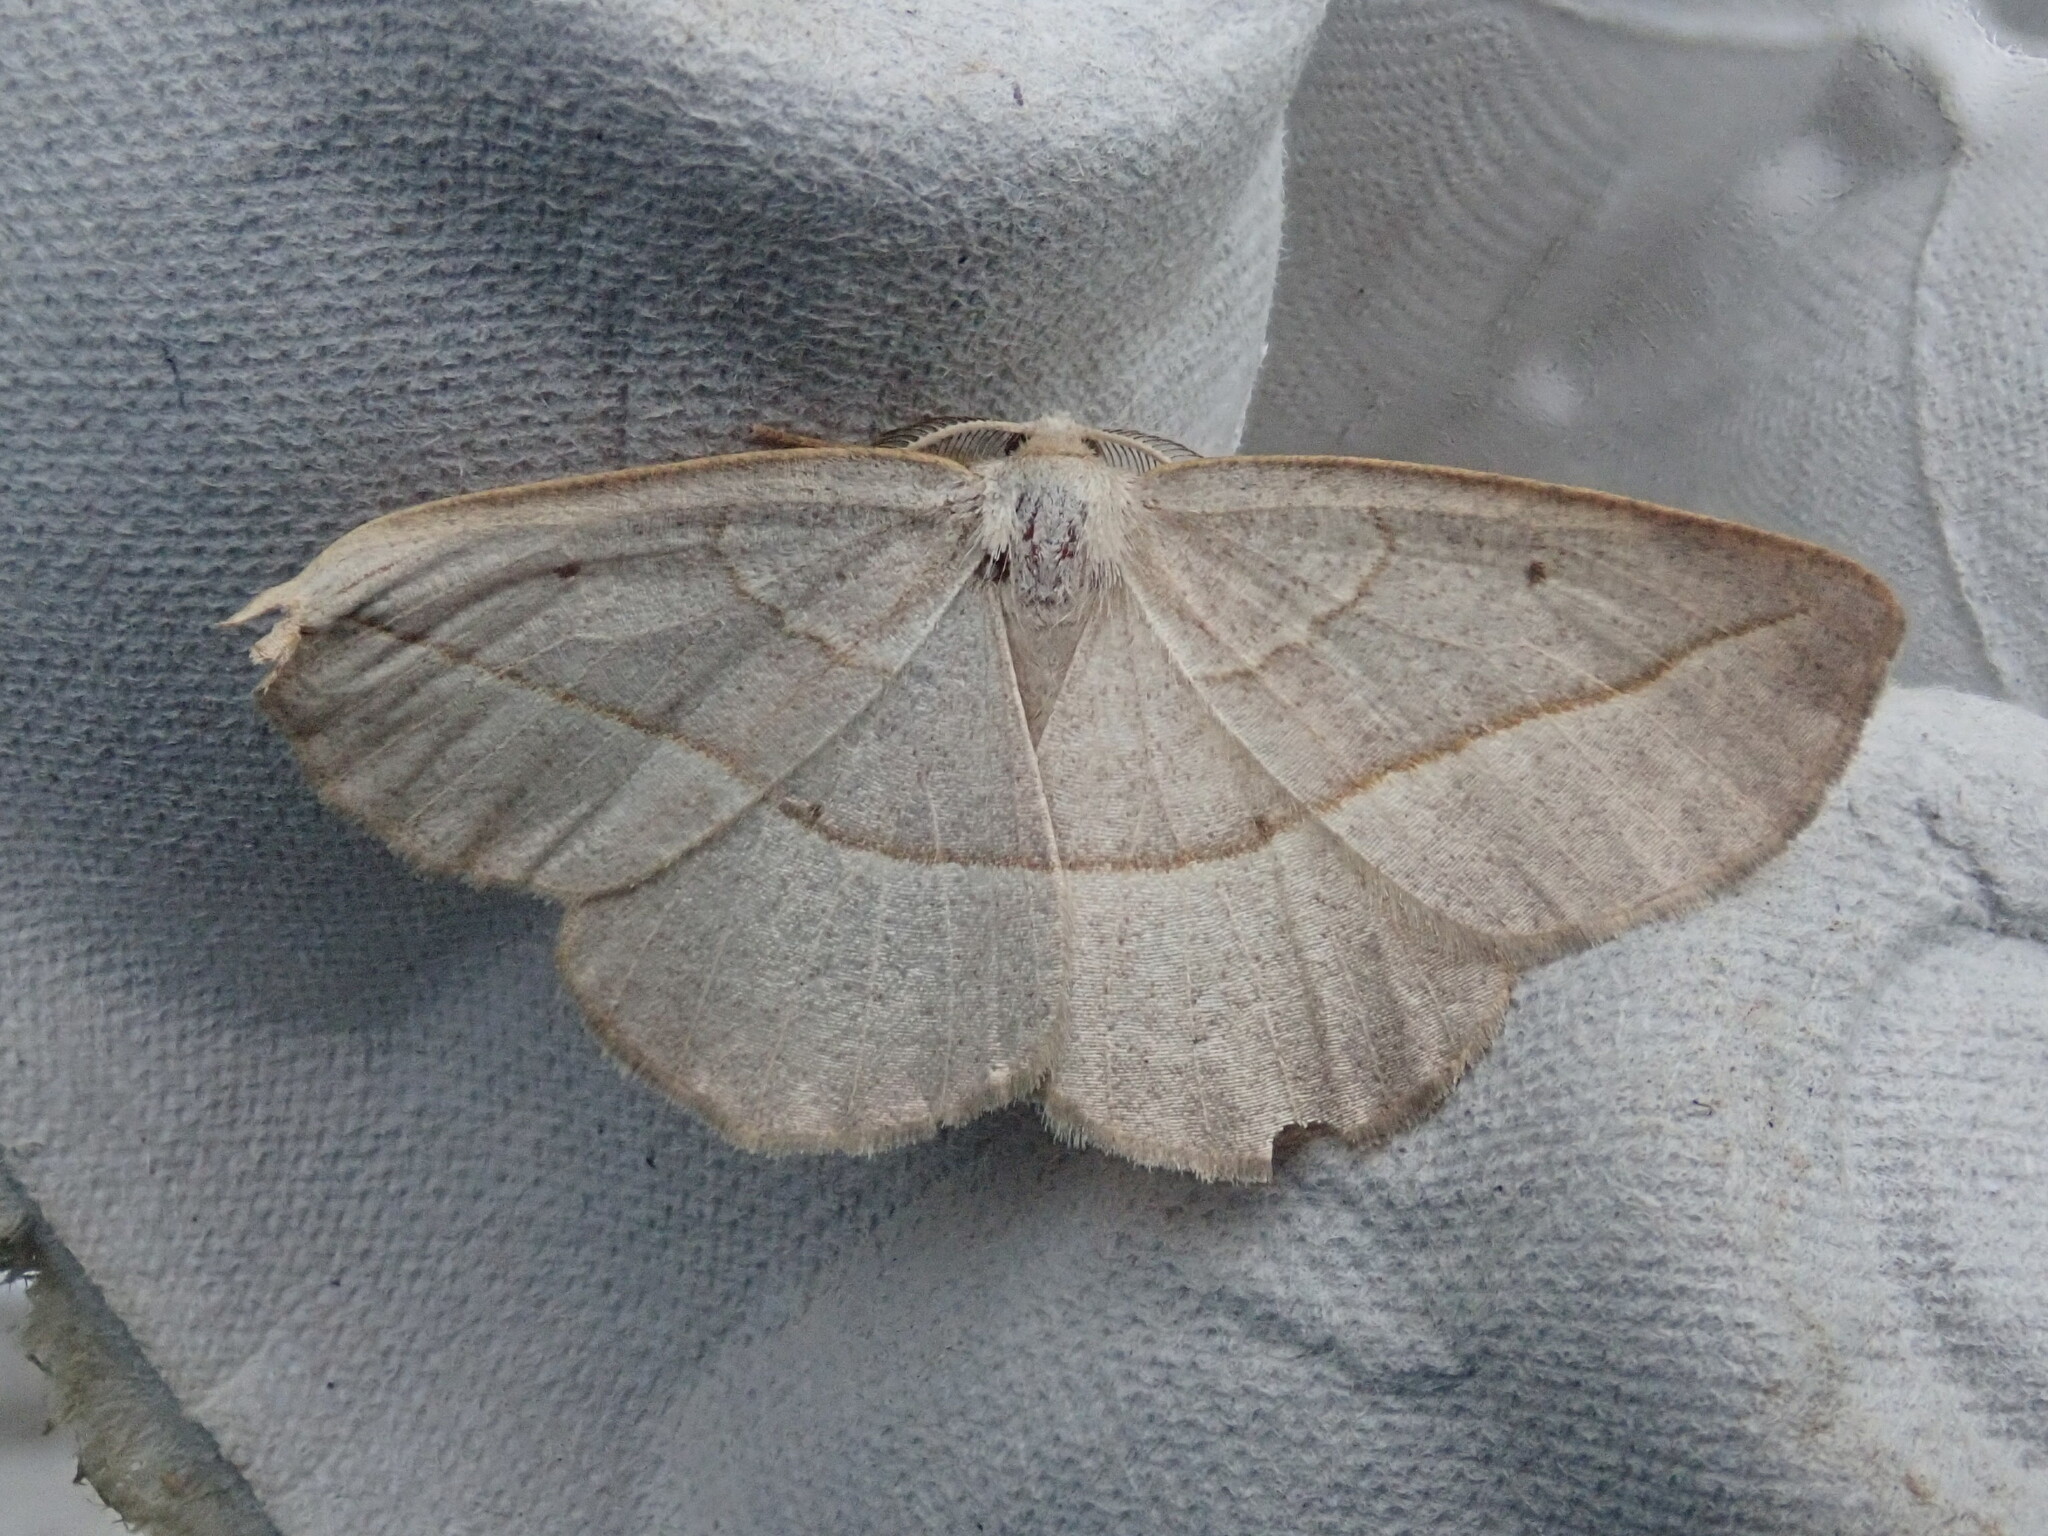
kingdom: Animalia
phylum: Arthropoda
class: Insecta
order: Lepidoptera
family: Geometridae
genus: Eusarca
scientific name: Eusarca confusaria
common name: Confused eusarca
